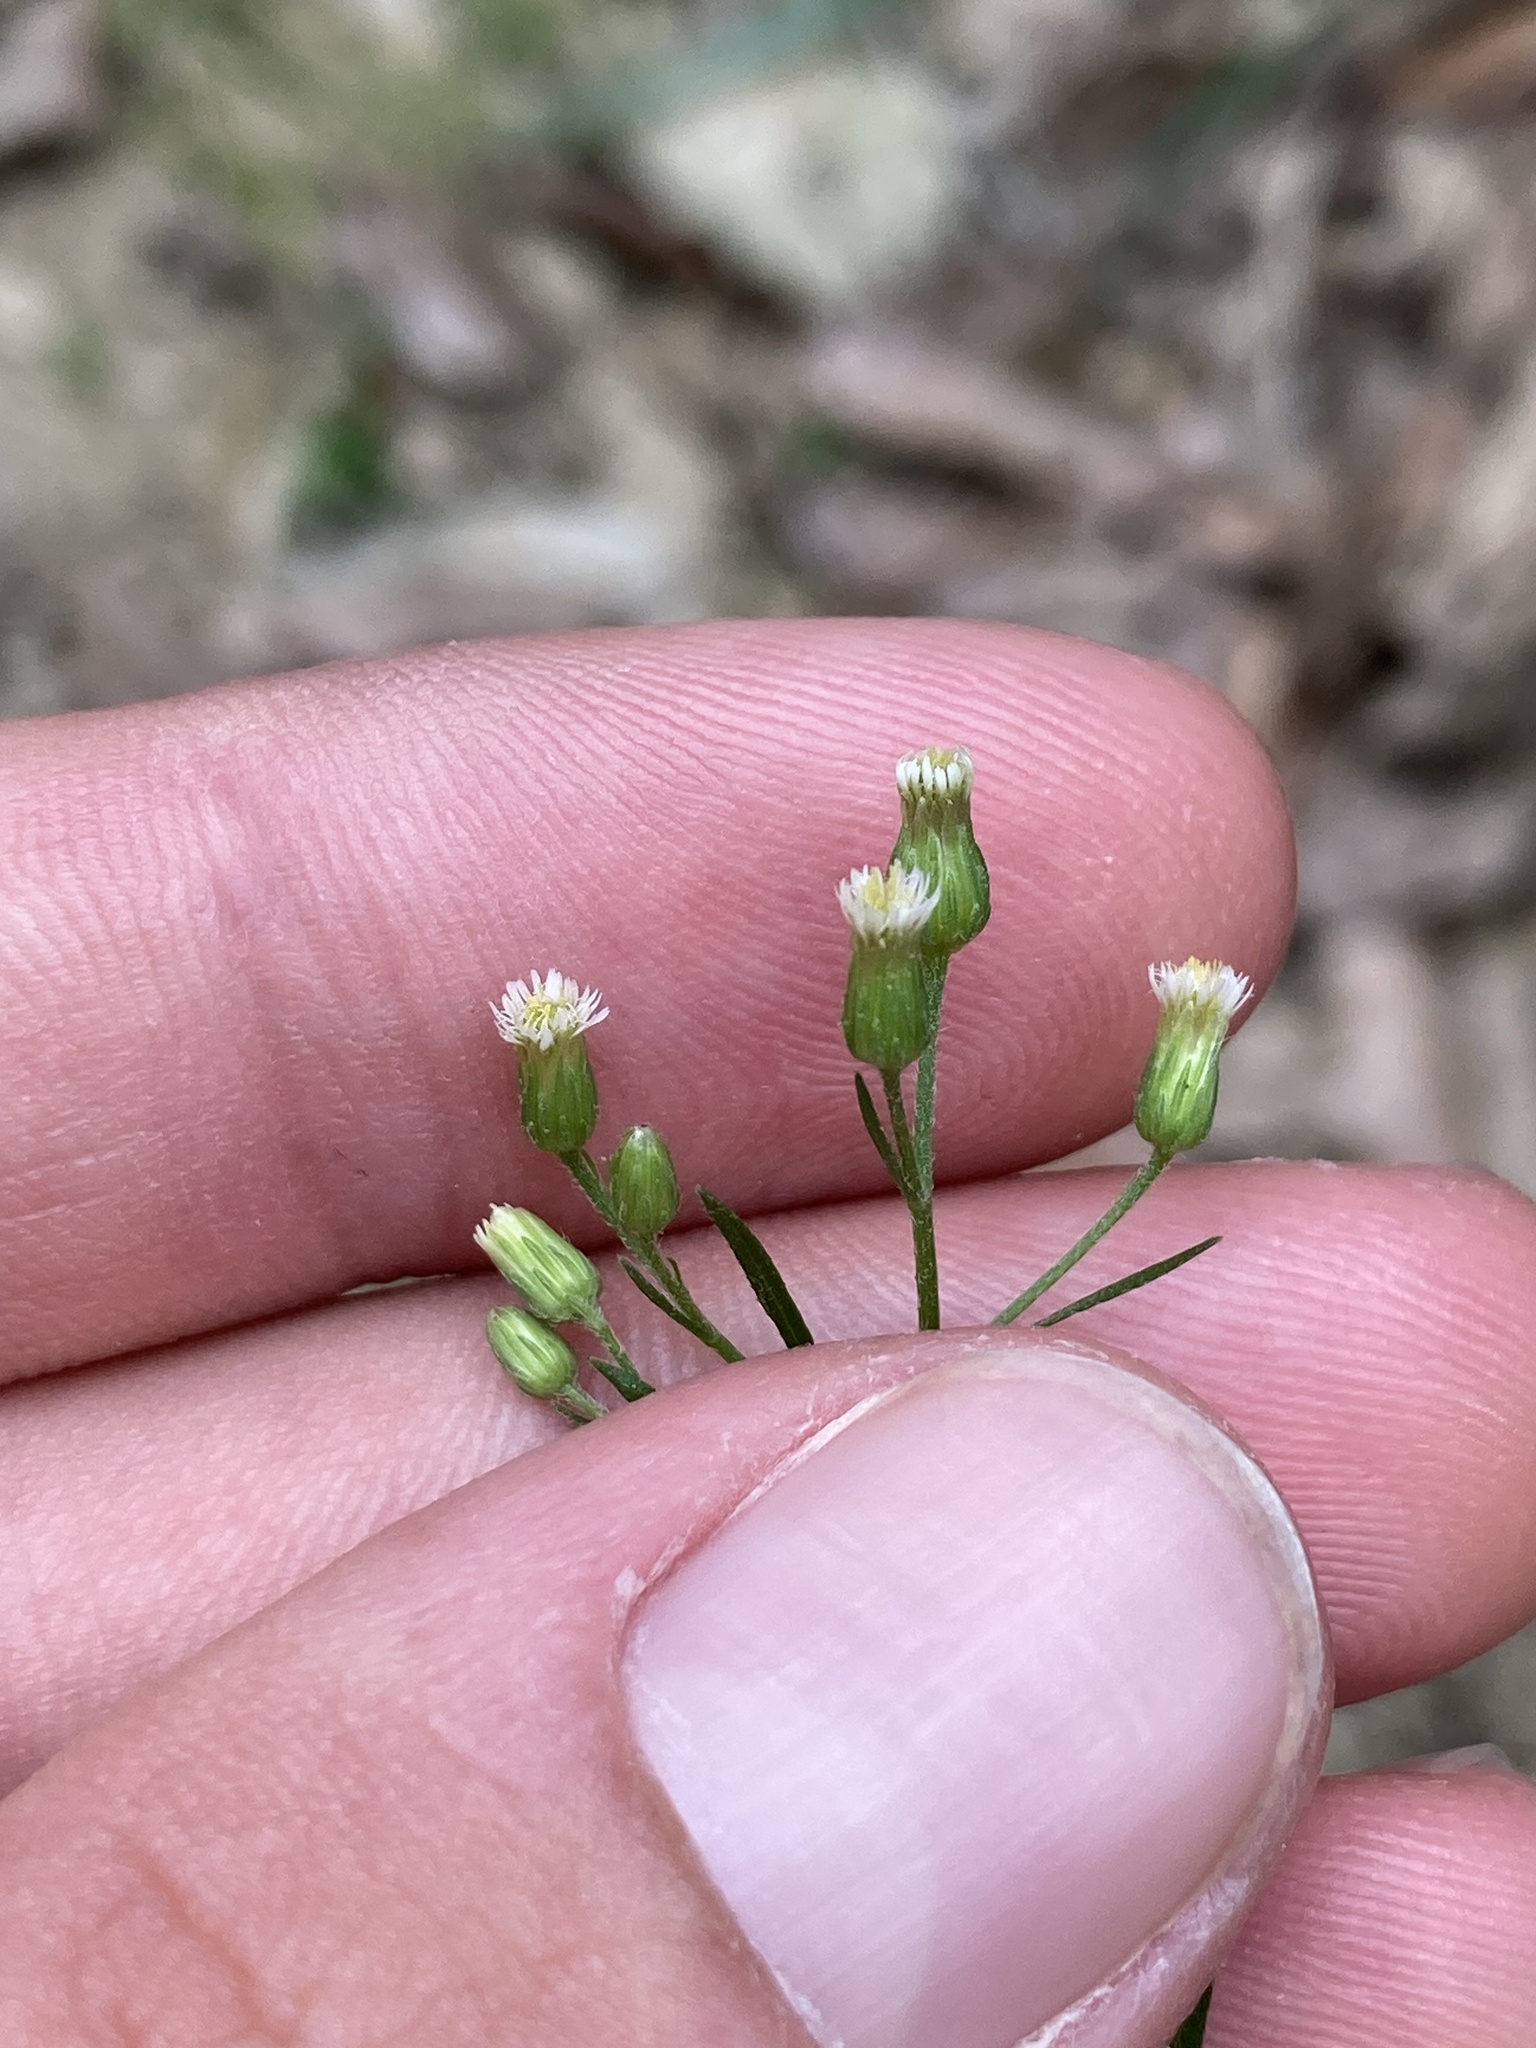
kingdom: Plantae
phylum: Tracheophyta
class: Magnoliopsida
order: Asterales
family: Asteraceae
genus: Erigeron
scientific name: Erigeron canadensis
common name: Canadian fleabane
